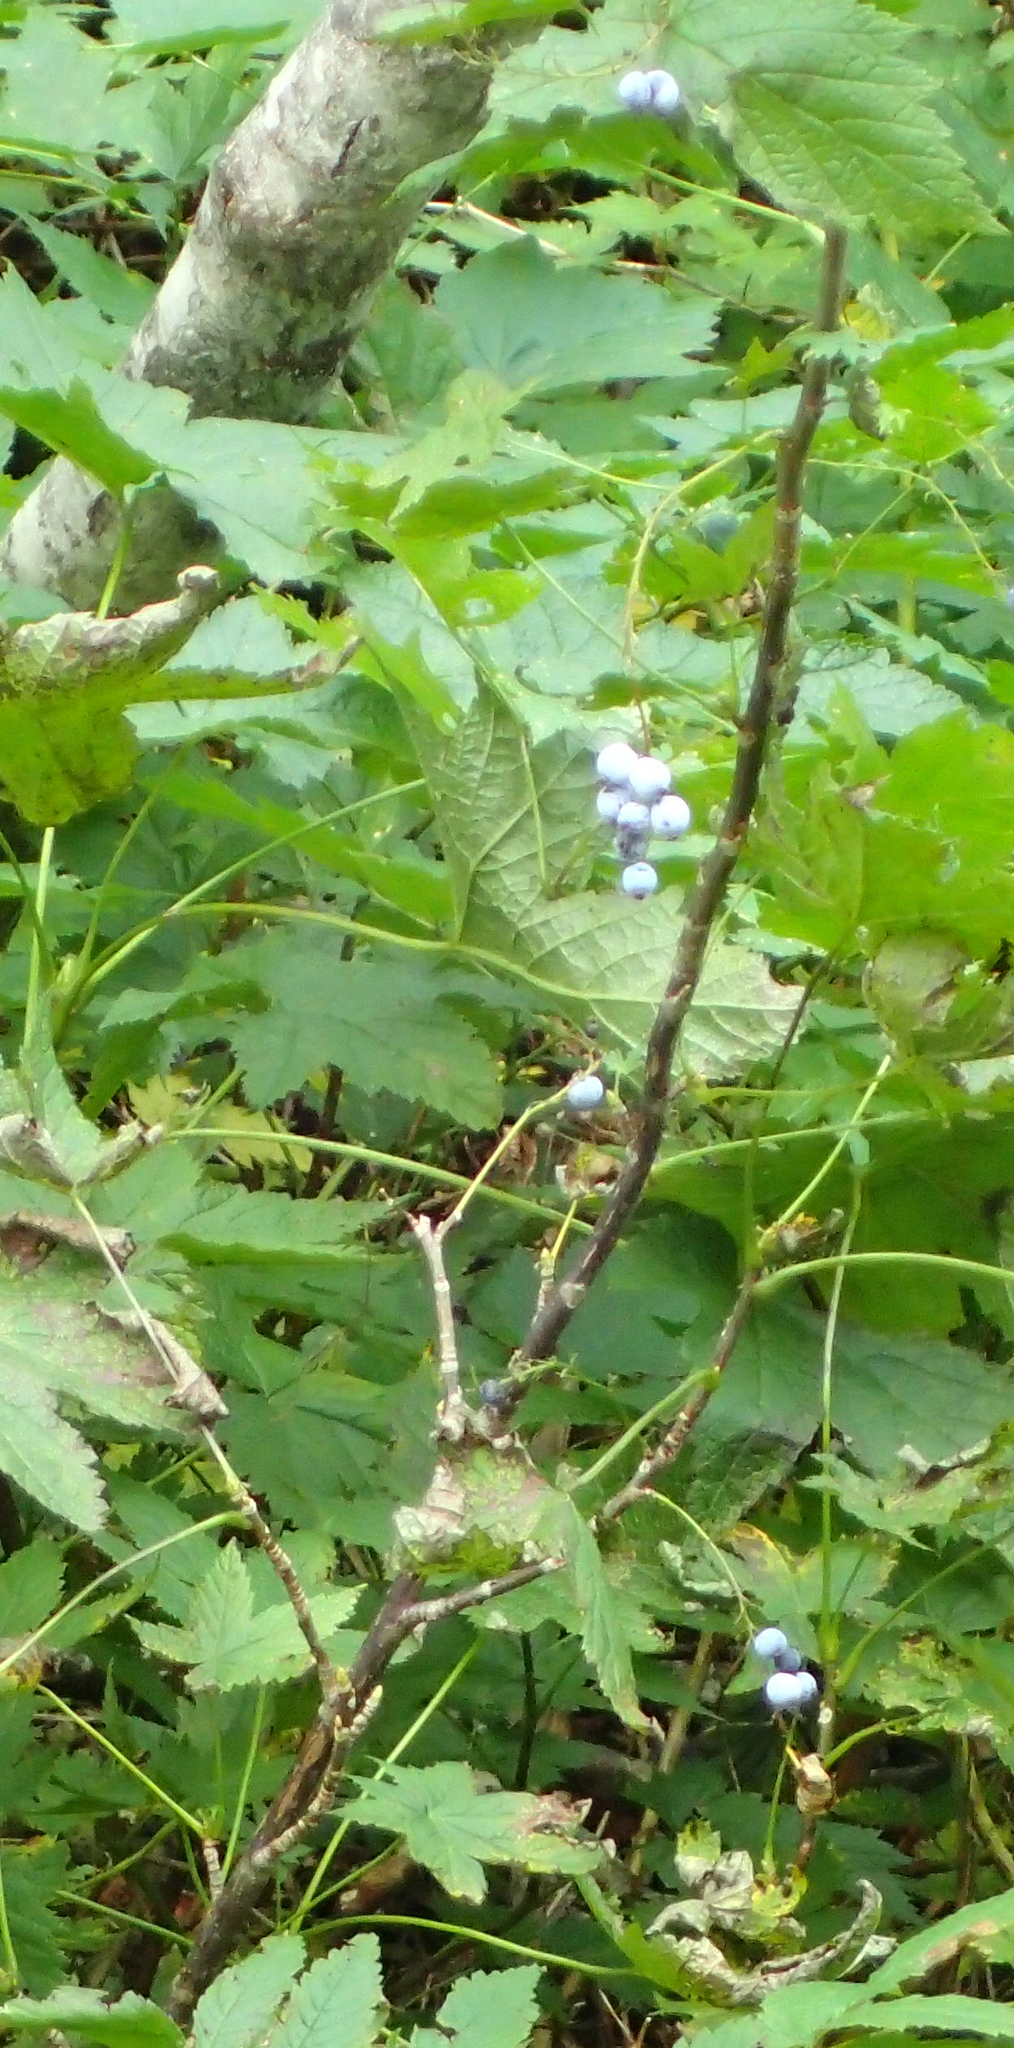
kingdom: Plantae
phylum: Tracheophyta
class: Magnoliopsida
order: Saxifragales
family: Grossulariaceae
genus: Ribes
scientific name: Ribes bracteosum
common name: California black currant
